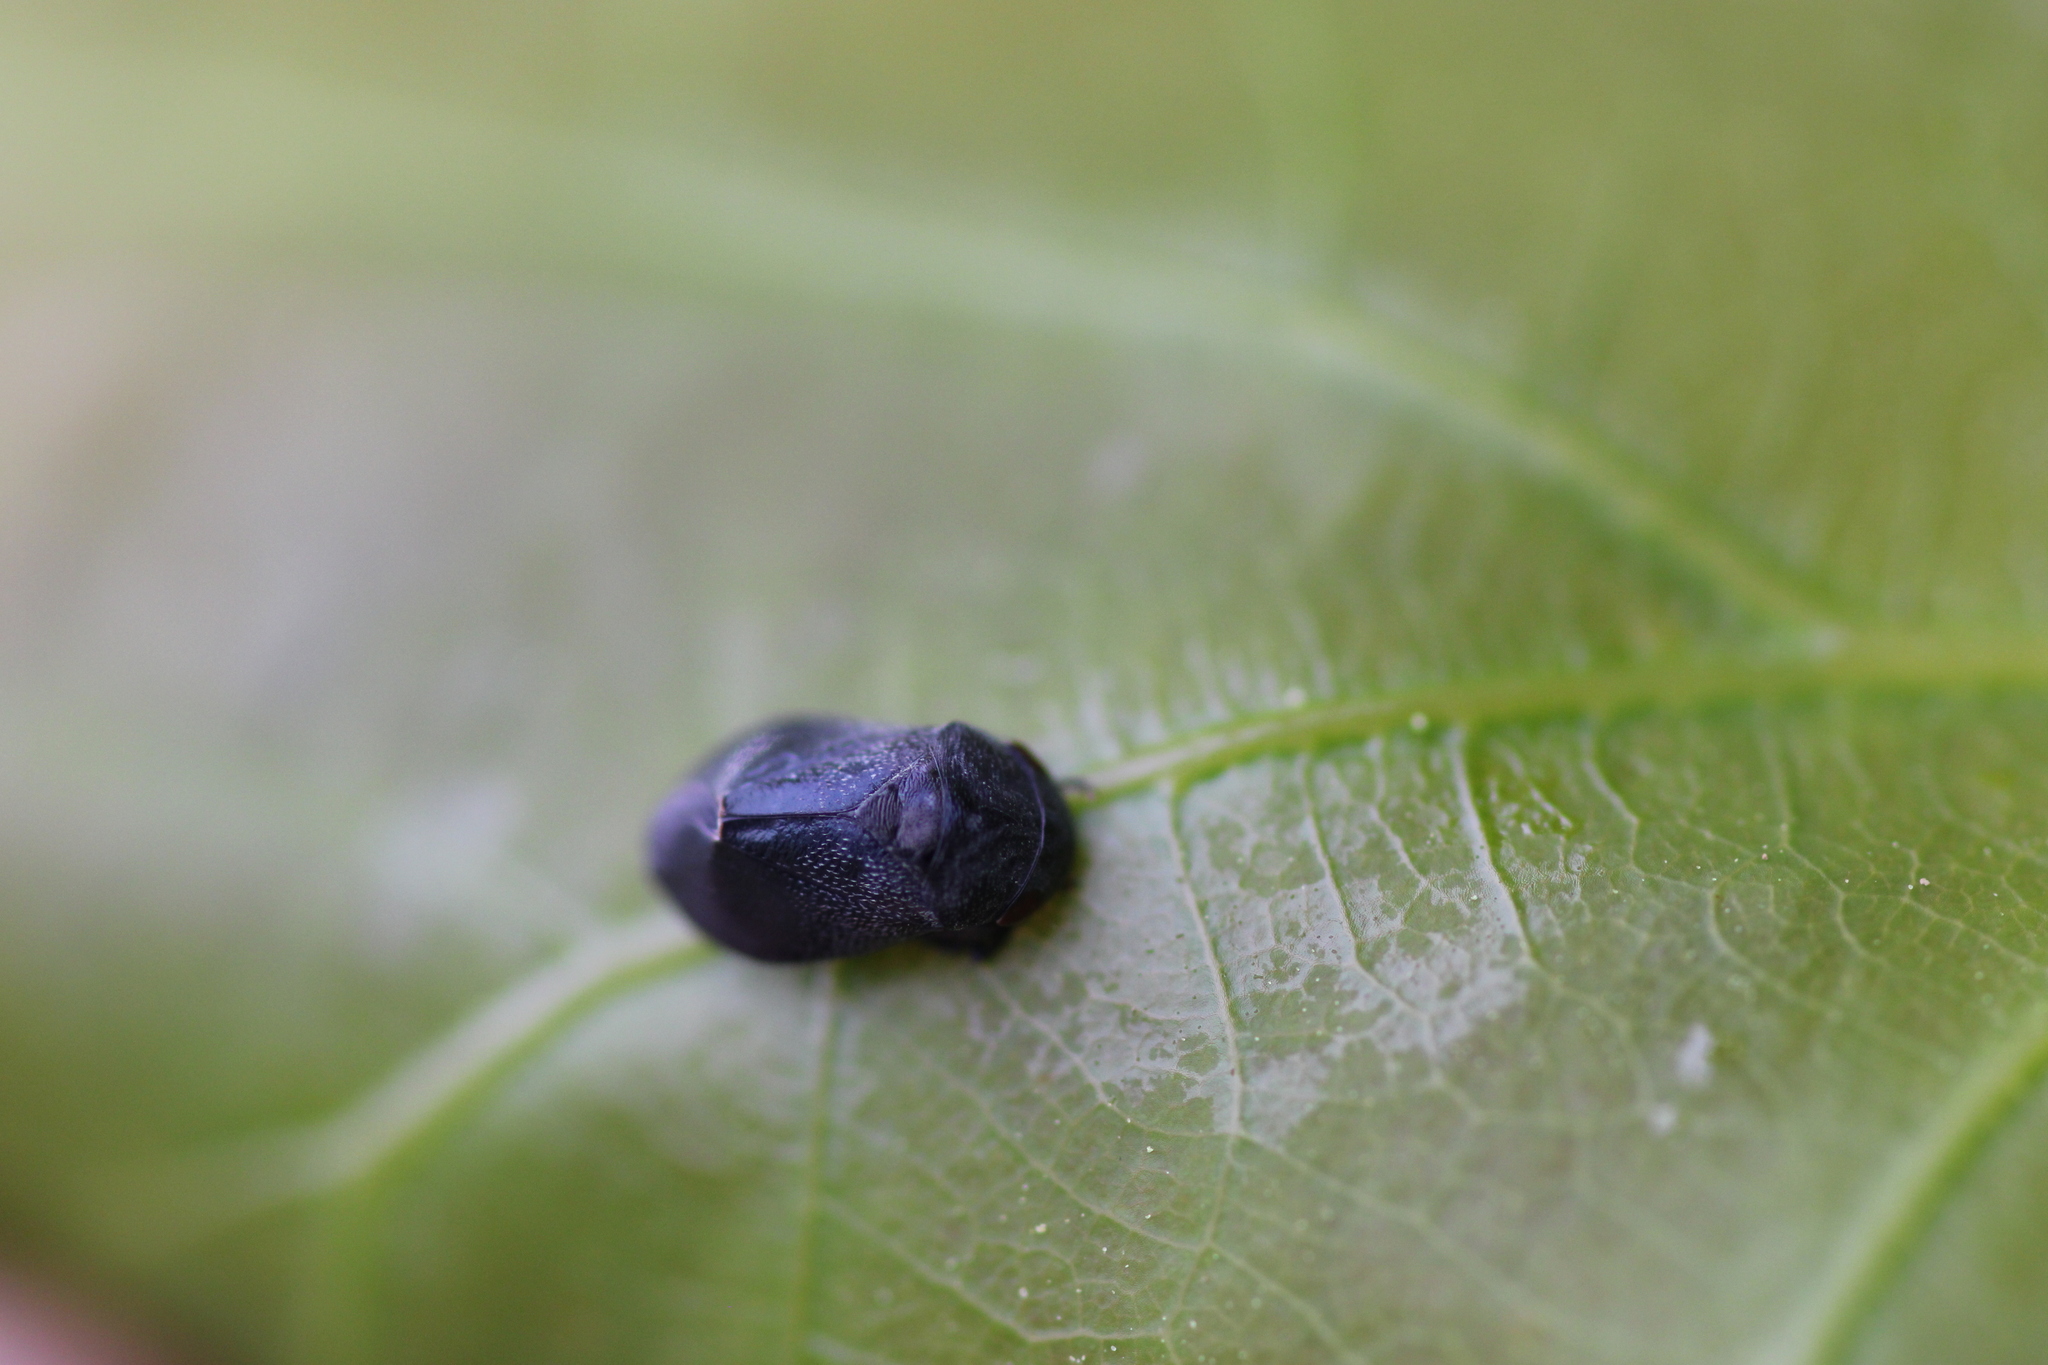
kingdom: Animalia
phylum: Arthropoda
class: Insecta
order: Hemiptera
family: Cicadellidae
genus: Penthimia
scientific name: Penthimia nigra
